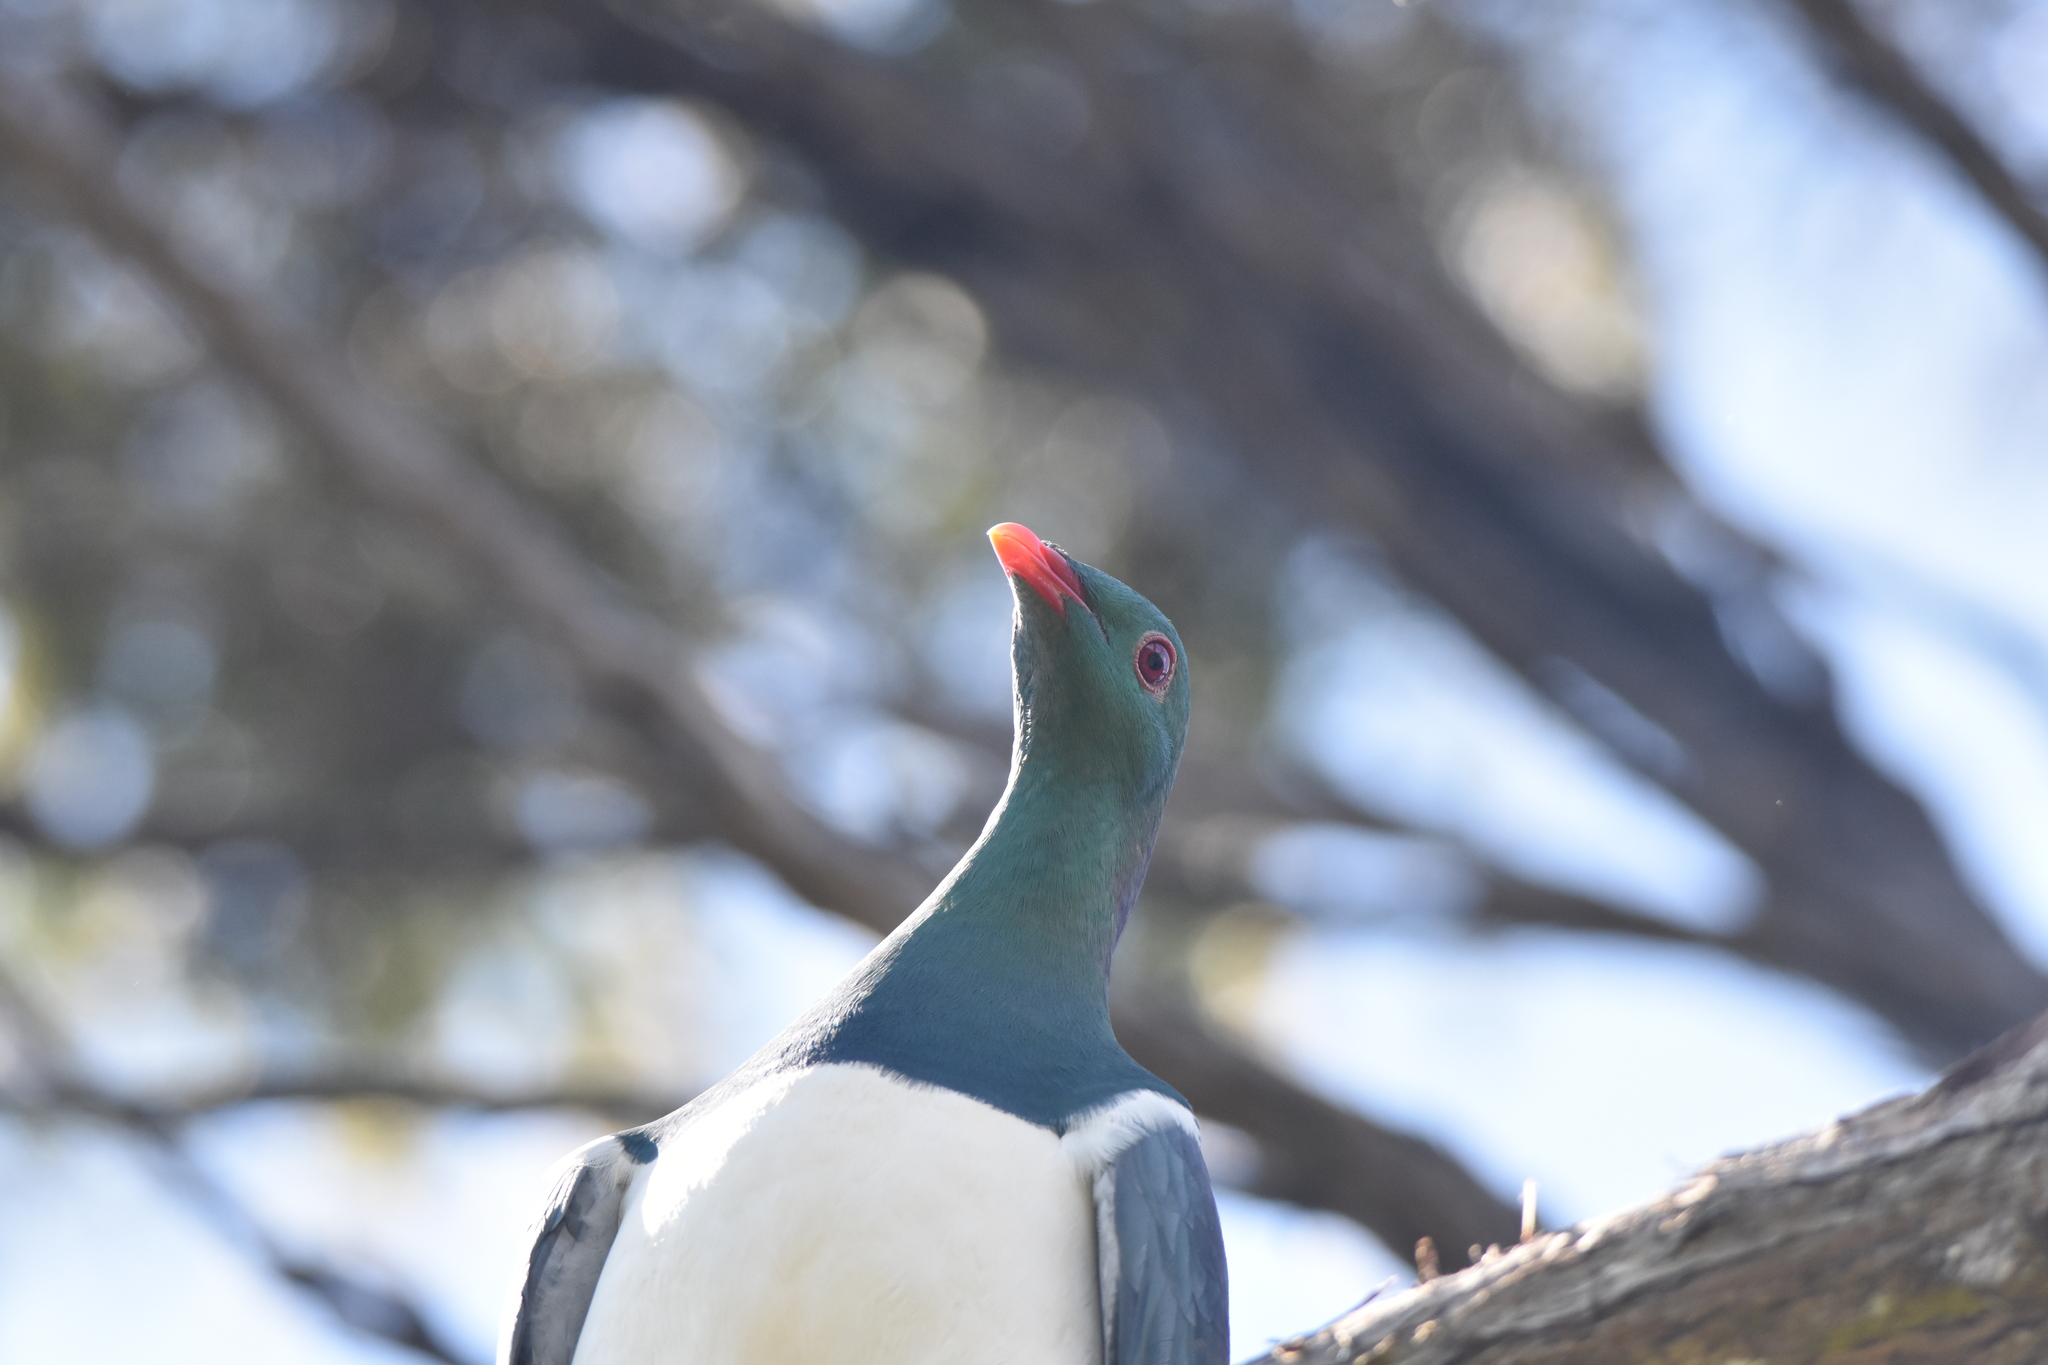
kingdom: Animalia
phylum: Chordata
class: Aves
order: Columbiformes
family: Columbidae
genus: Hemiphaga
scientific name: Hemiphaga novaeseelandiae
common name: New zealand pigeon
